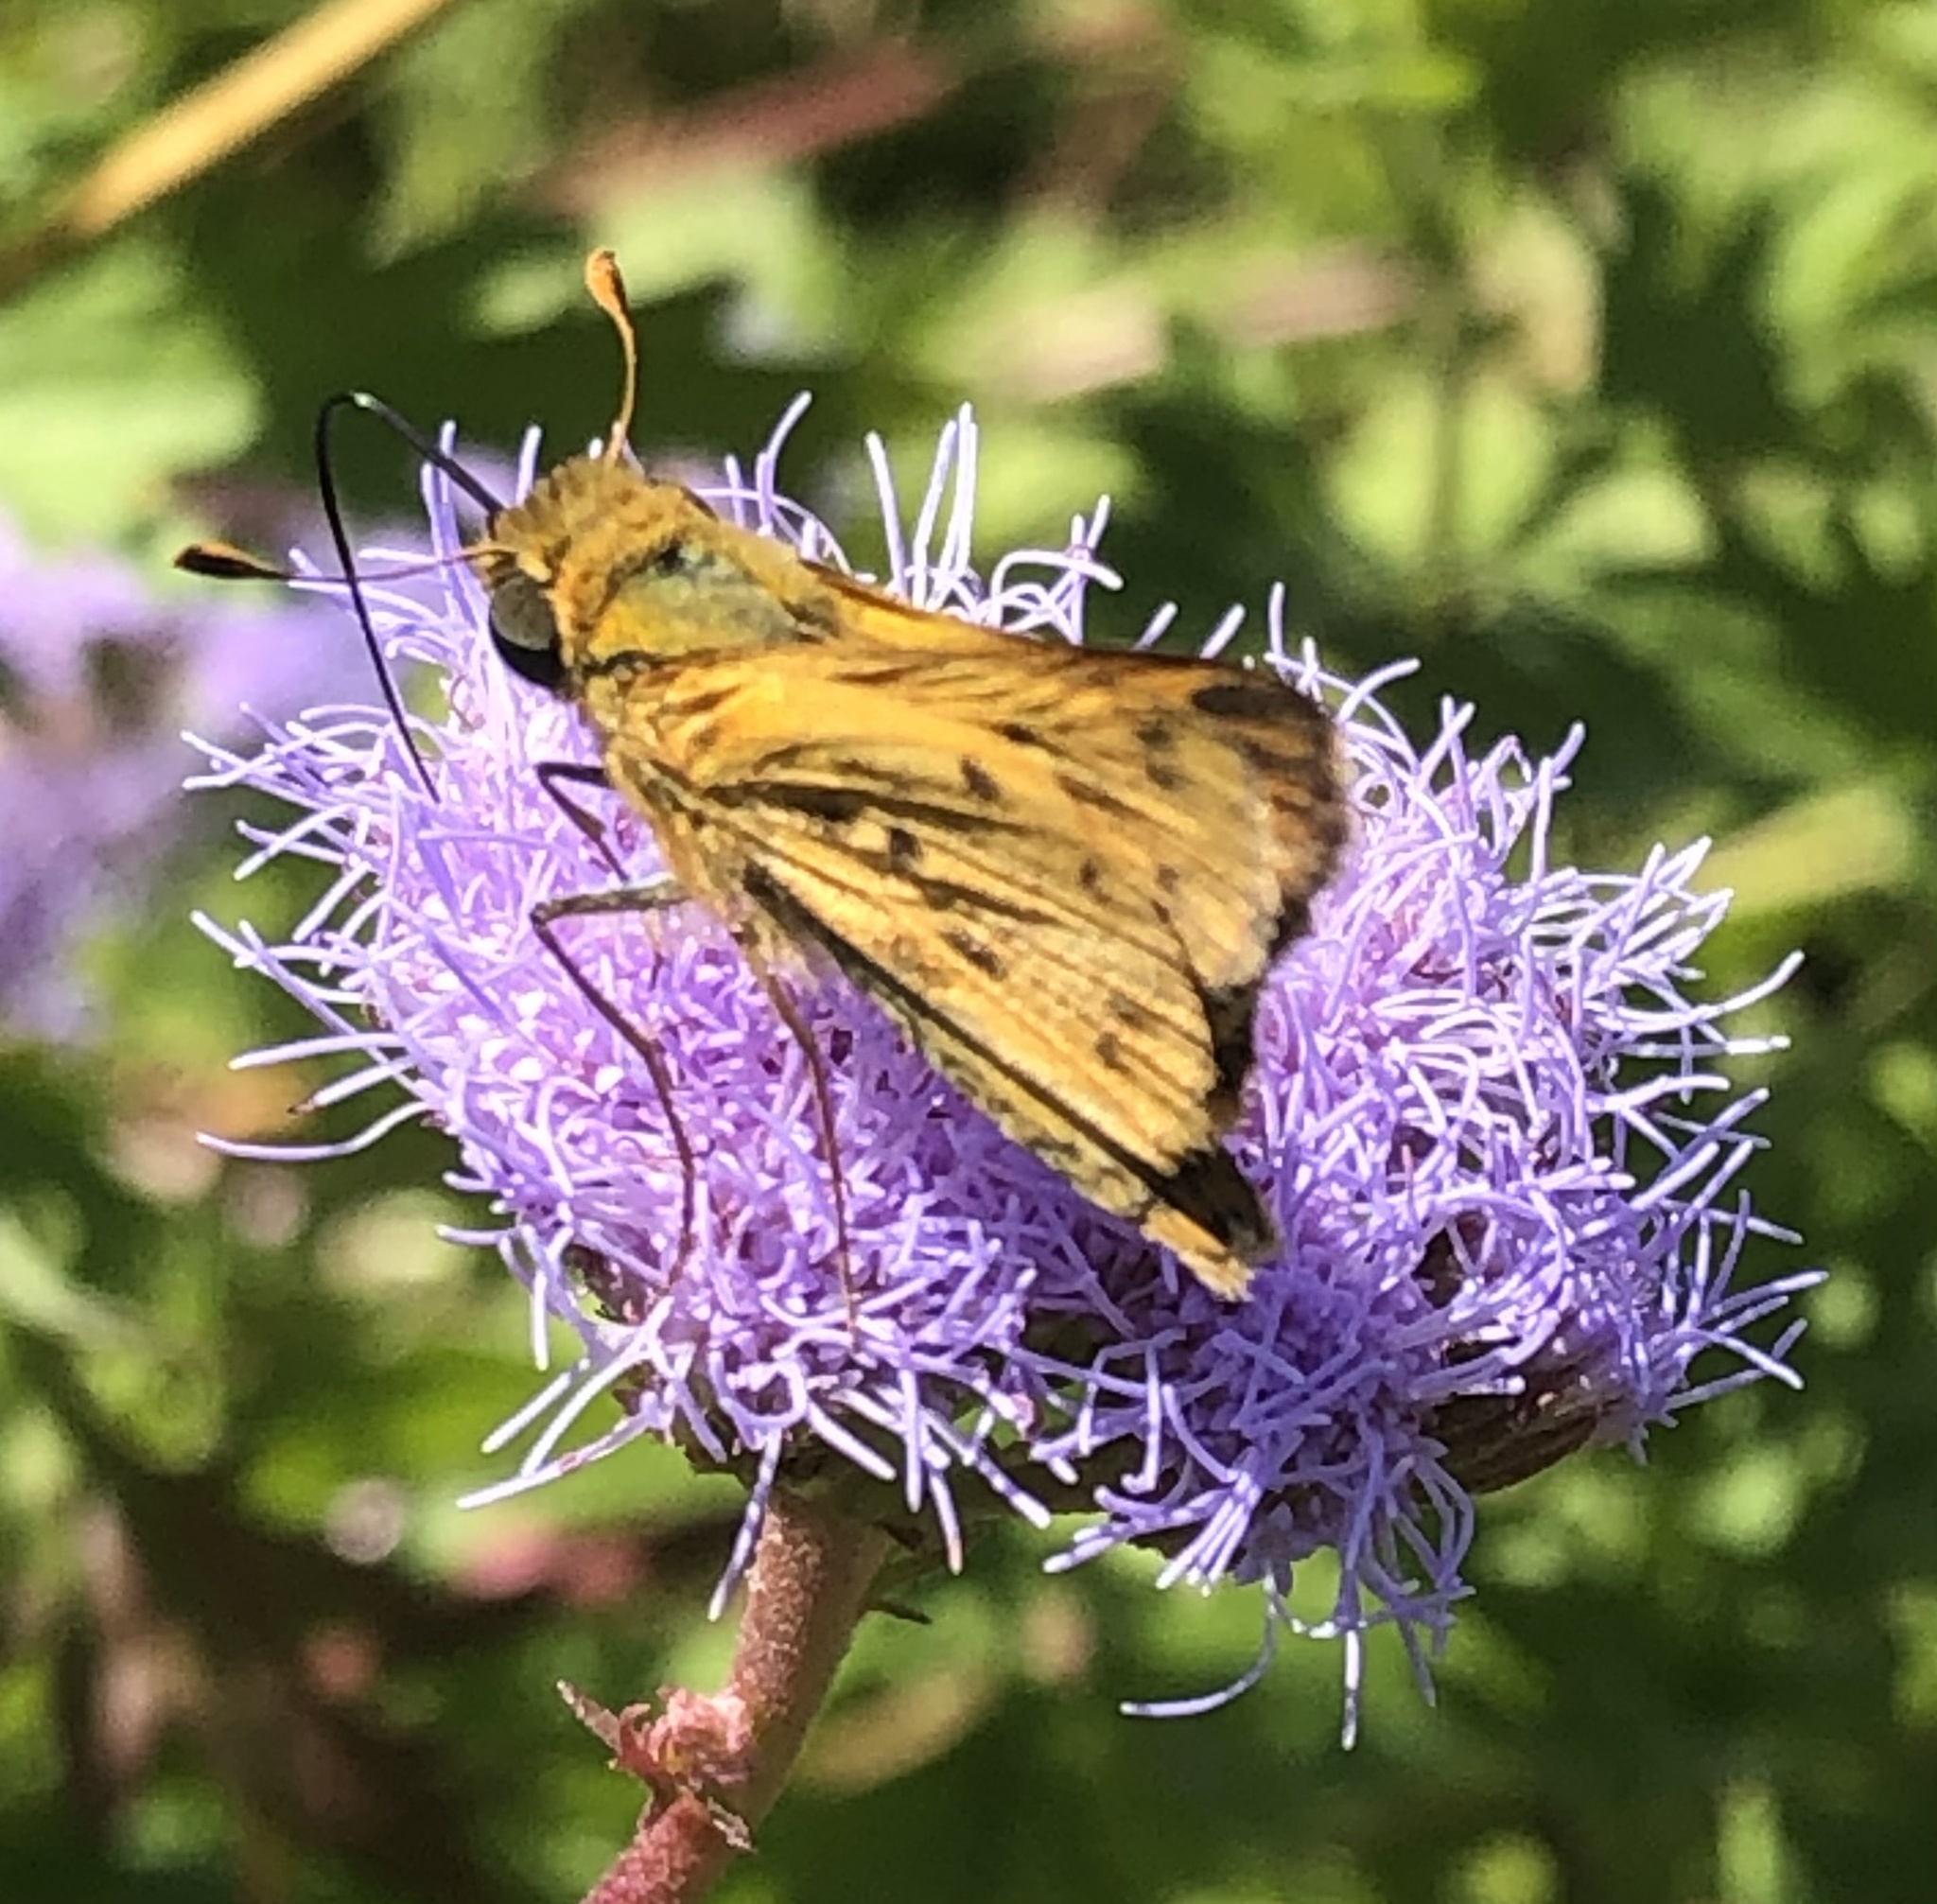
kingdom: Animalia
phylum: Arthropoda
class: Insecta
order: Lepidoptera
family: Hesperiidae
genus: Hylephila
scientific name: Hylephila phyleus
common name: Fiery skipper
